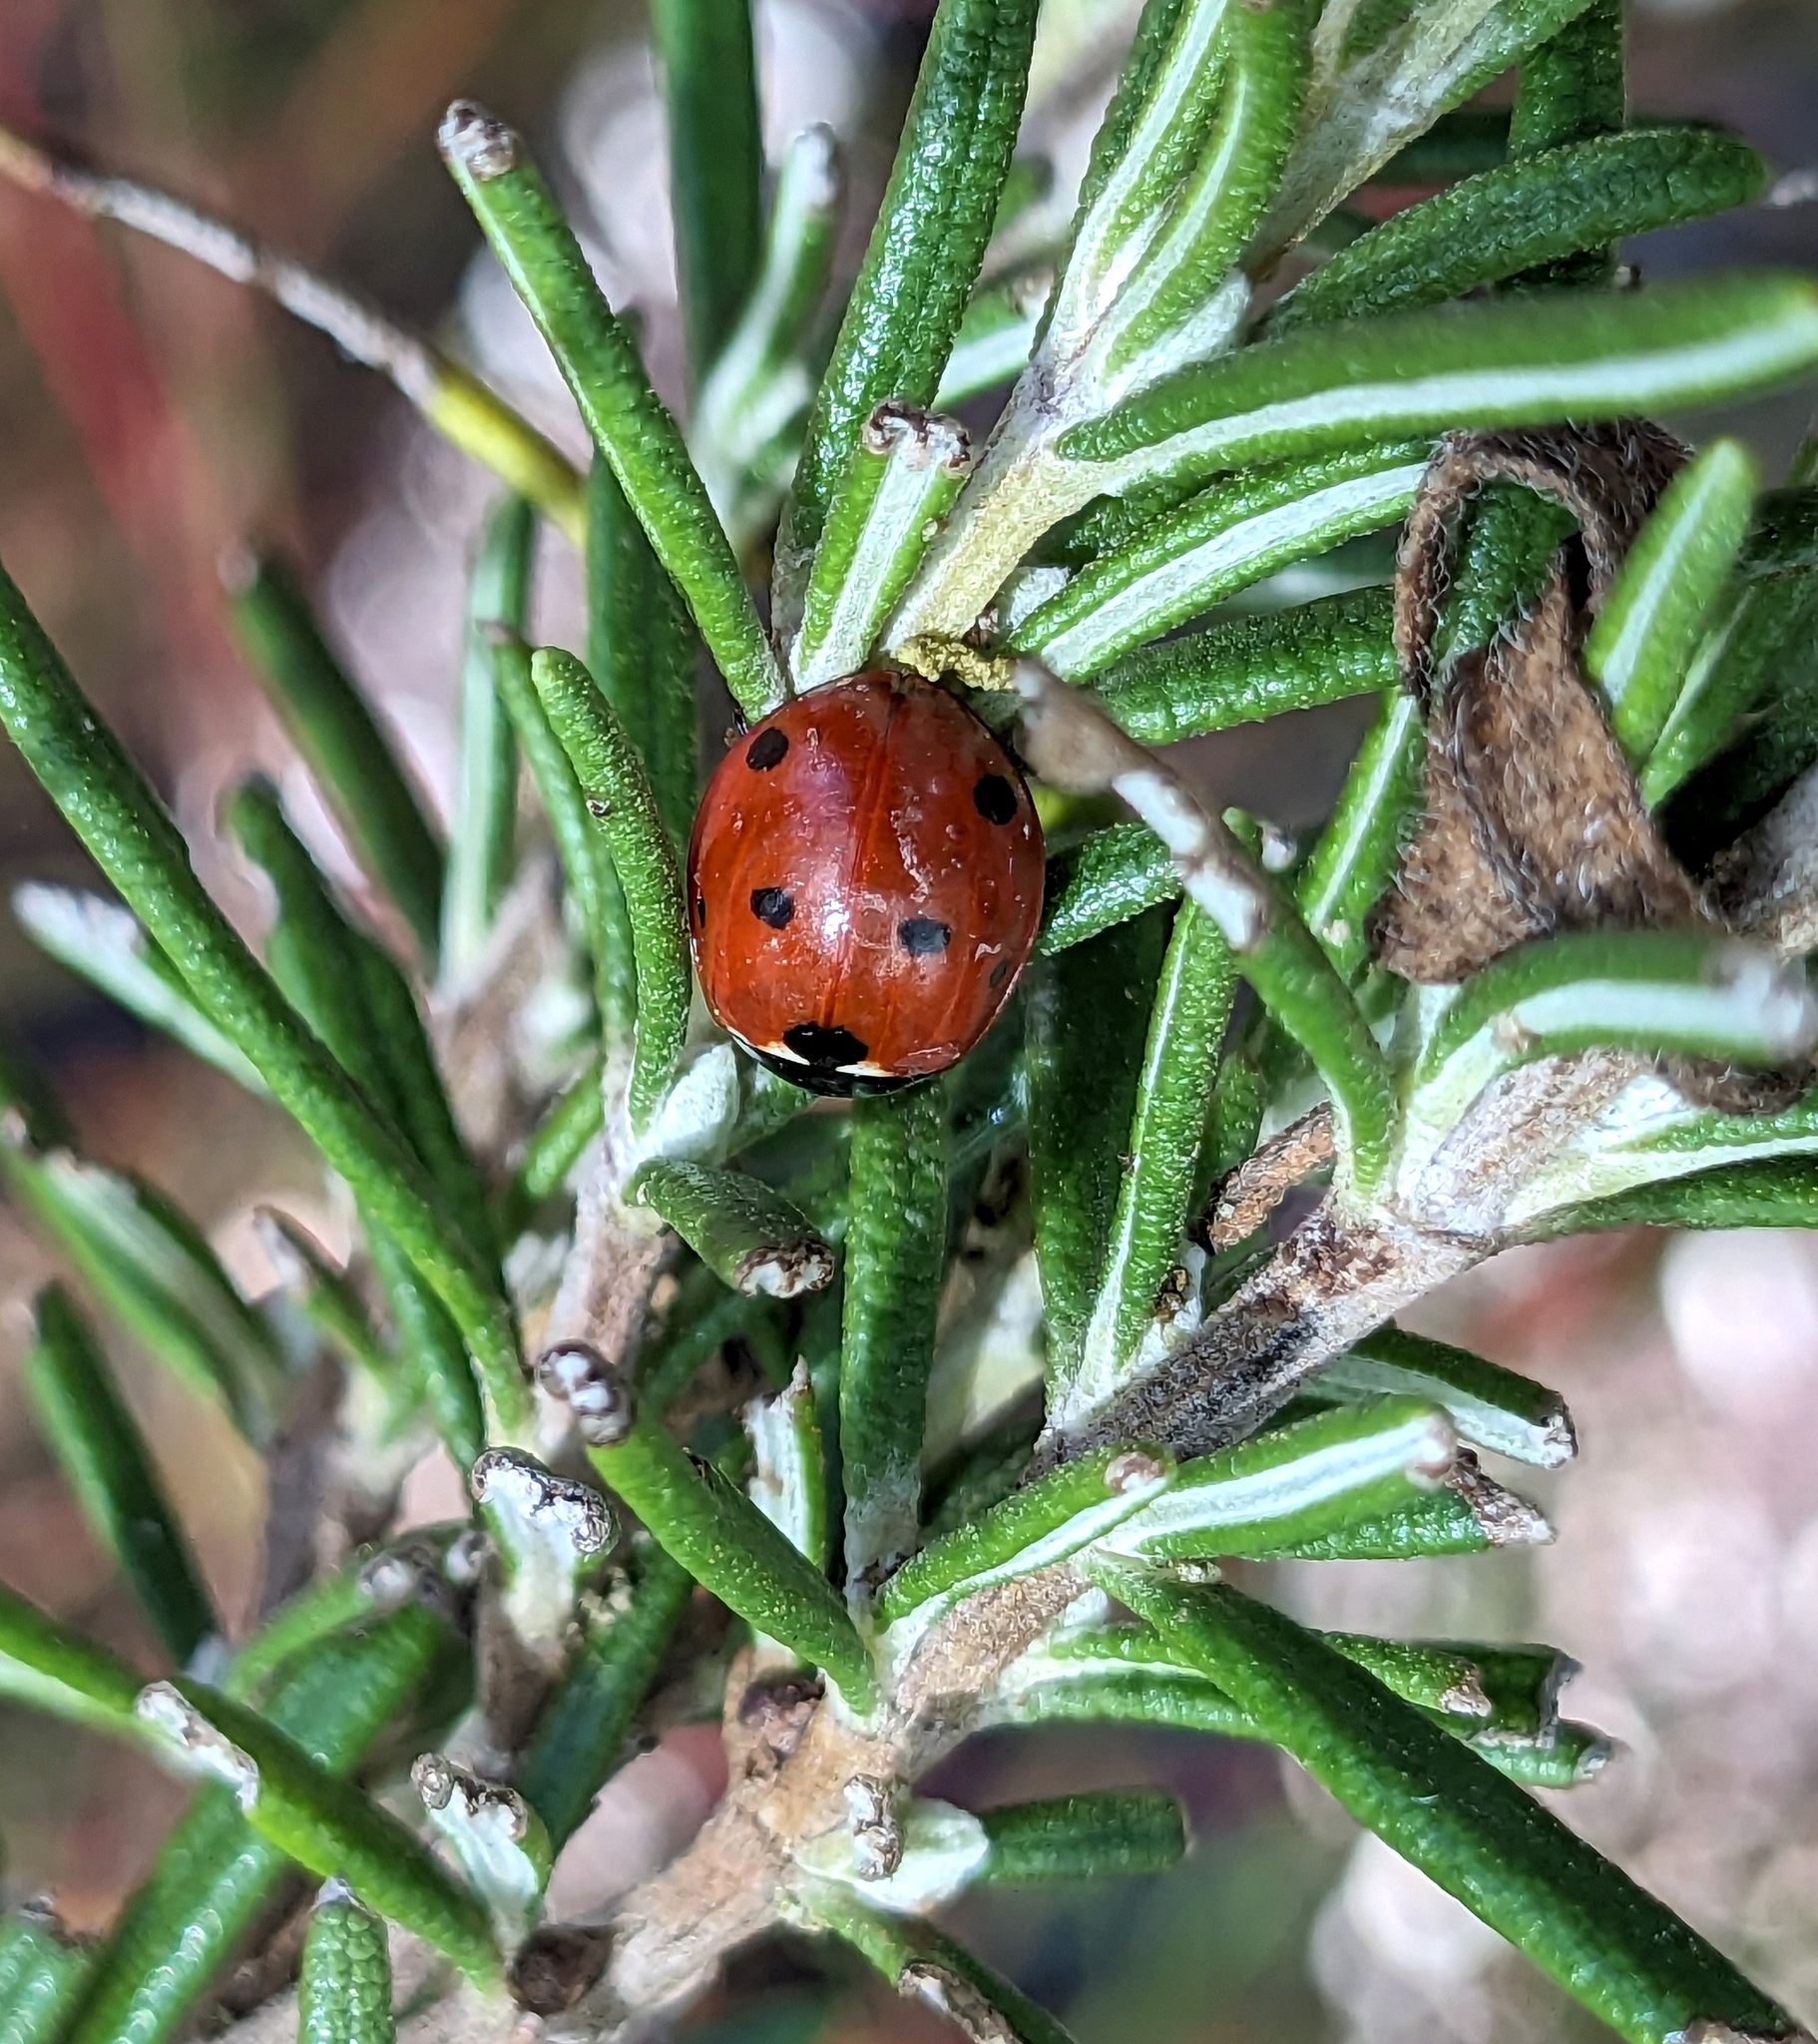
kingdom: Animalia
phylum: Arthropoda
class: Insecta
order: Coleoptera
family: Coccinellidae
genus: Coccinella
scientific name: Coccinella septempunctata
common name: Sevenspotted lady beetle
